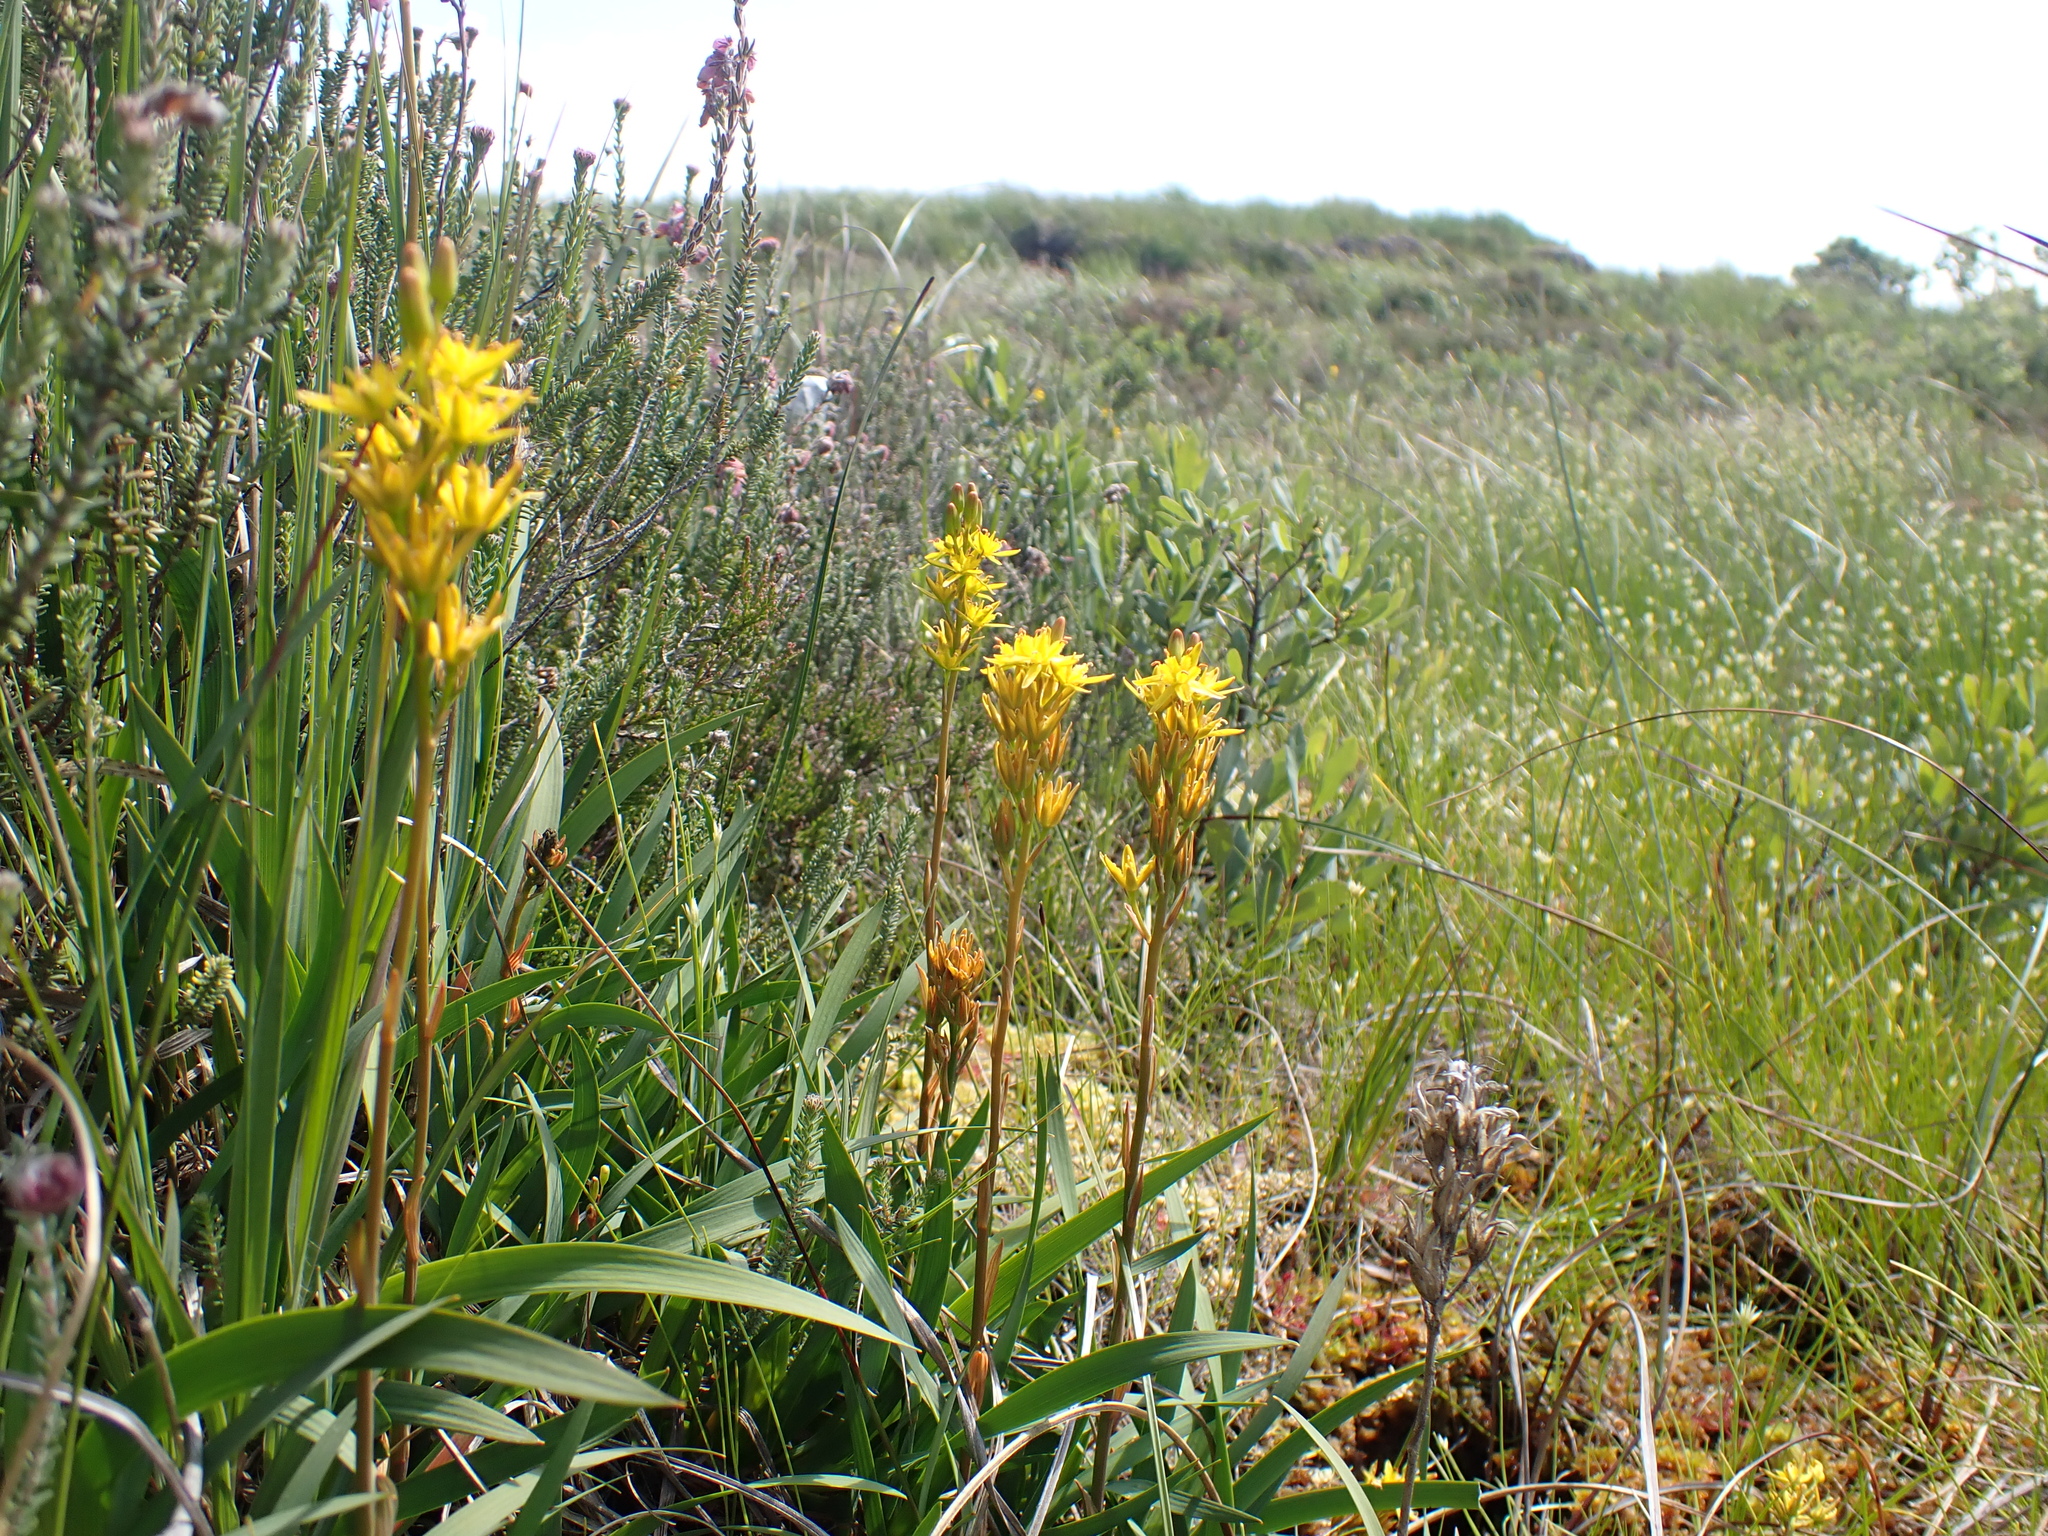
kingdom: Plantae
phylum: Tracheophyta
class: Liliopsida
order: Dioscoreales
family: Nartheciaceae
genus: Narthecium
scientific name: Narthecium ossifragum
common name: Bog asphodel
